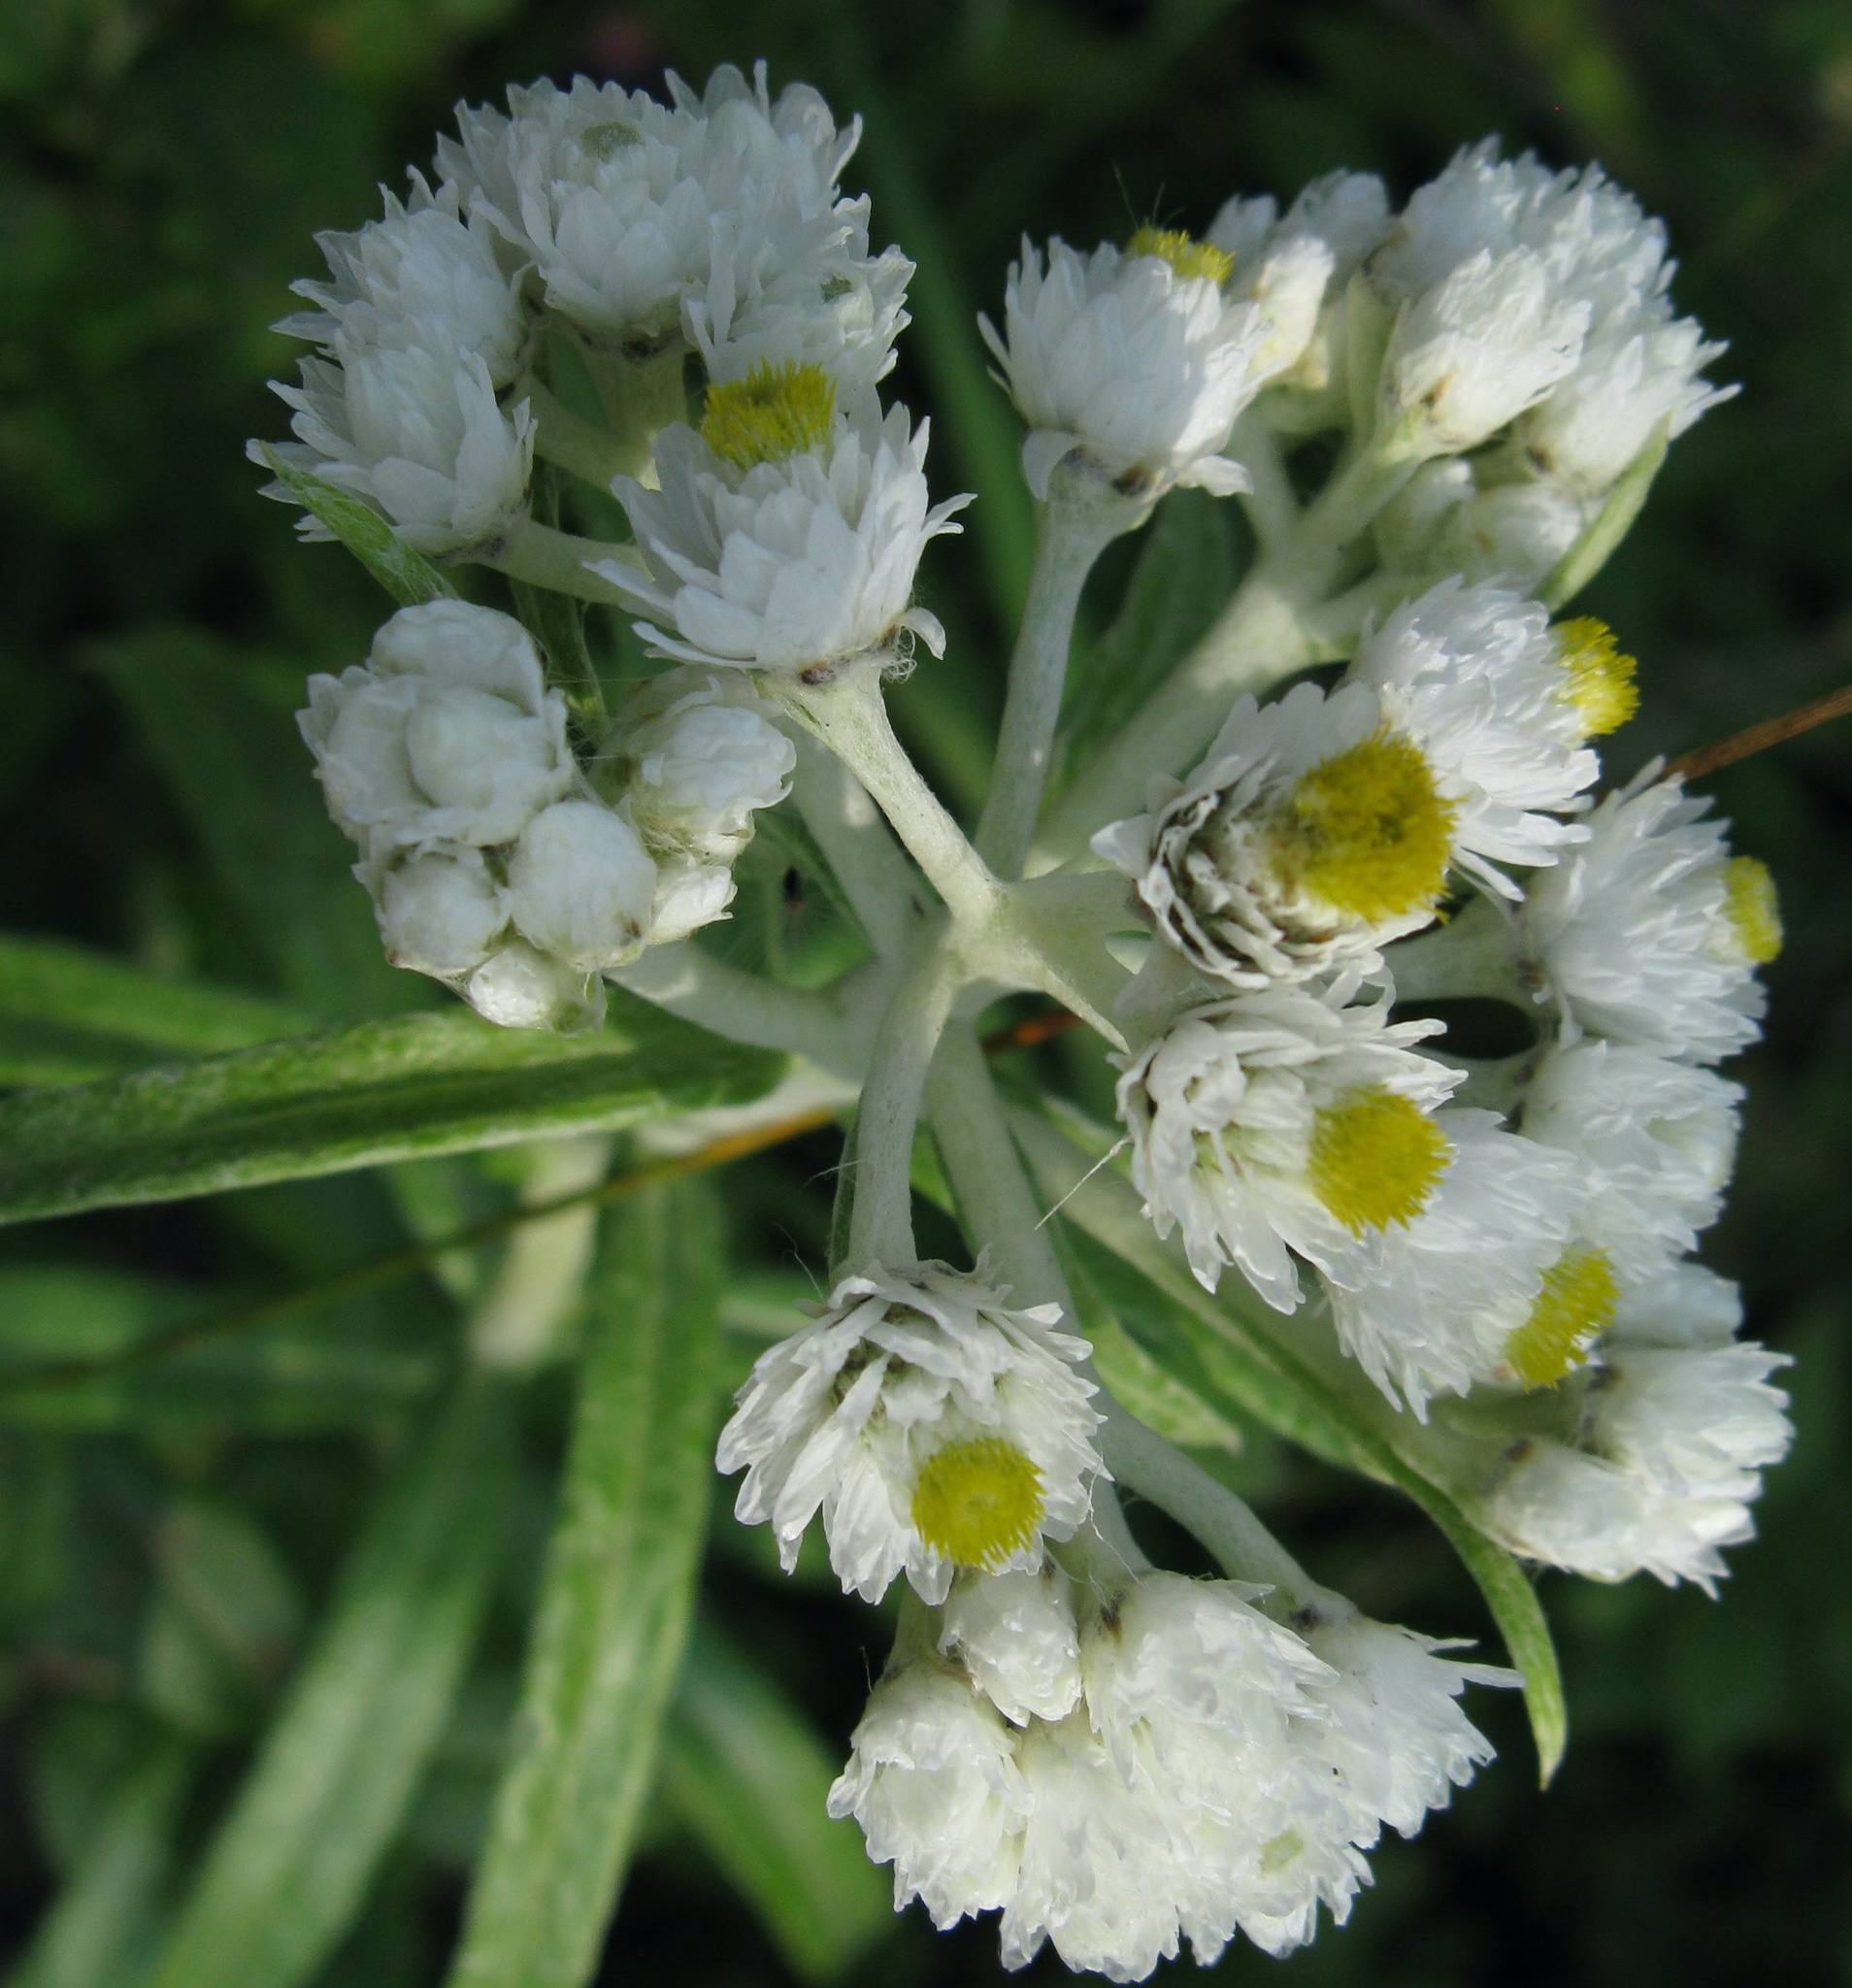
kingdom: Plantae
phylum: Tracheophyta
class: Magnoliopsida
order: Asterales
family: Asteraceae
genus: Anaphalis
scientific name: Anaphalis margaritacea
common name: Pearly everlasting
